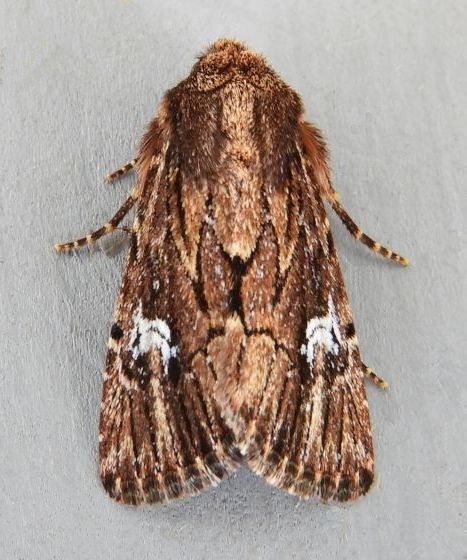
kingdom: Animalia
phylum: Arthropoda
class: Insecta
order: Lepidoptera
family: Noctuidae
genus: Properigea
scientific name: Properigea loculosa
